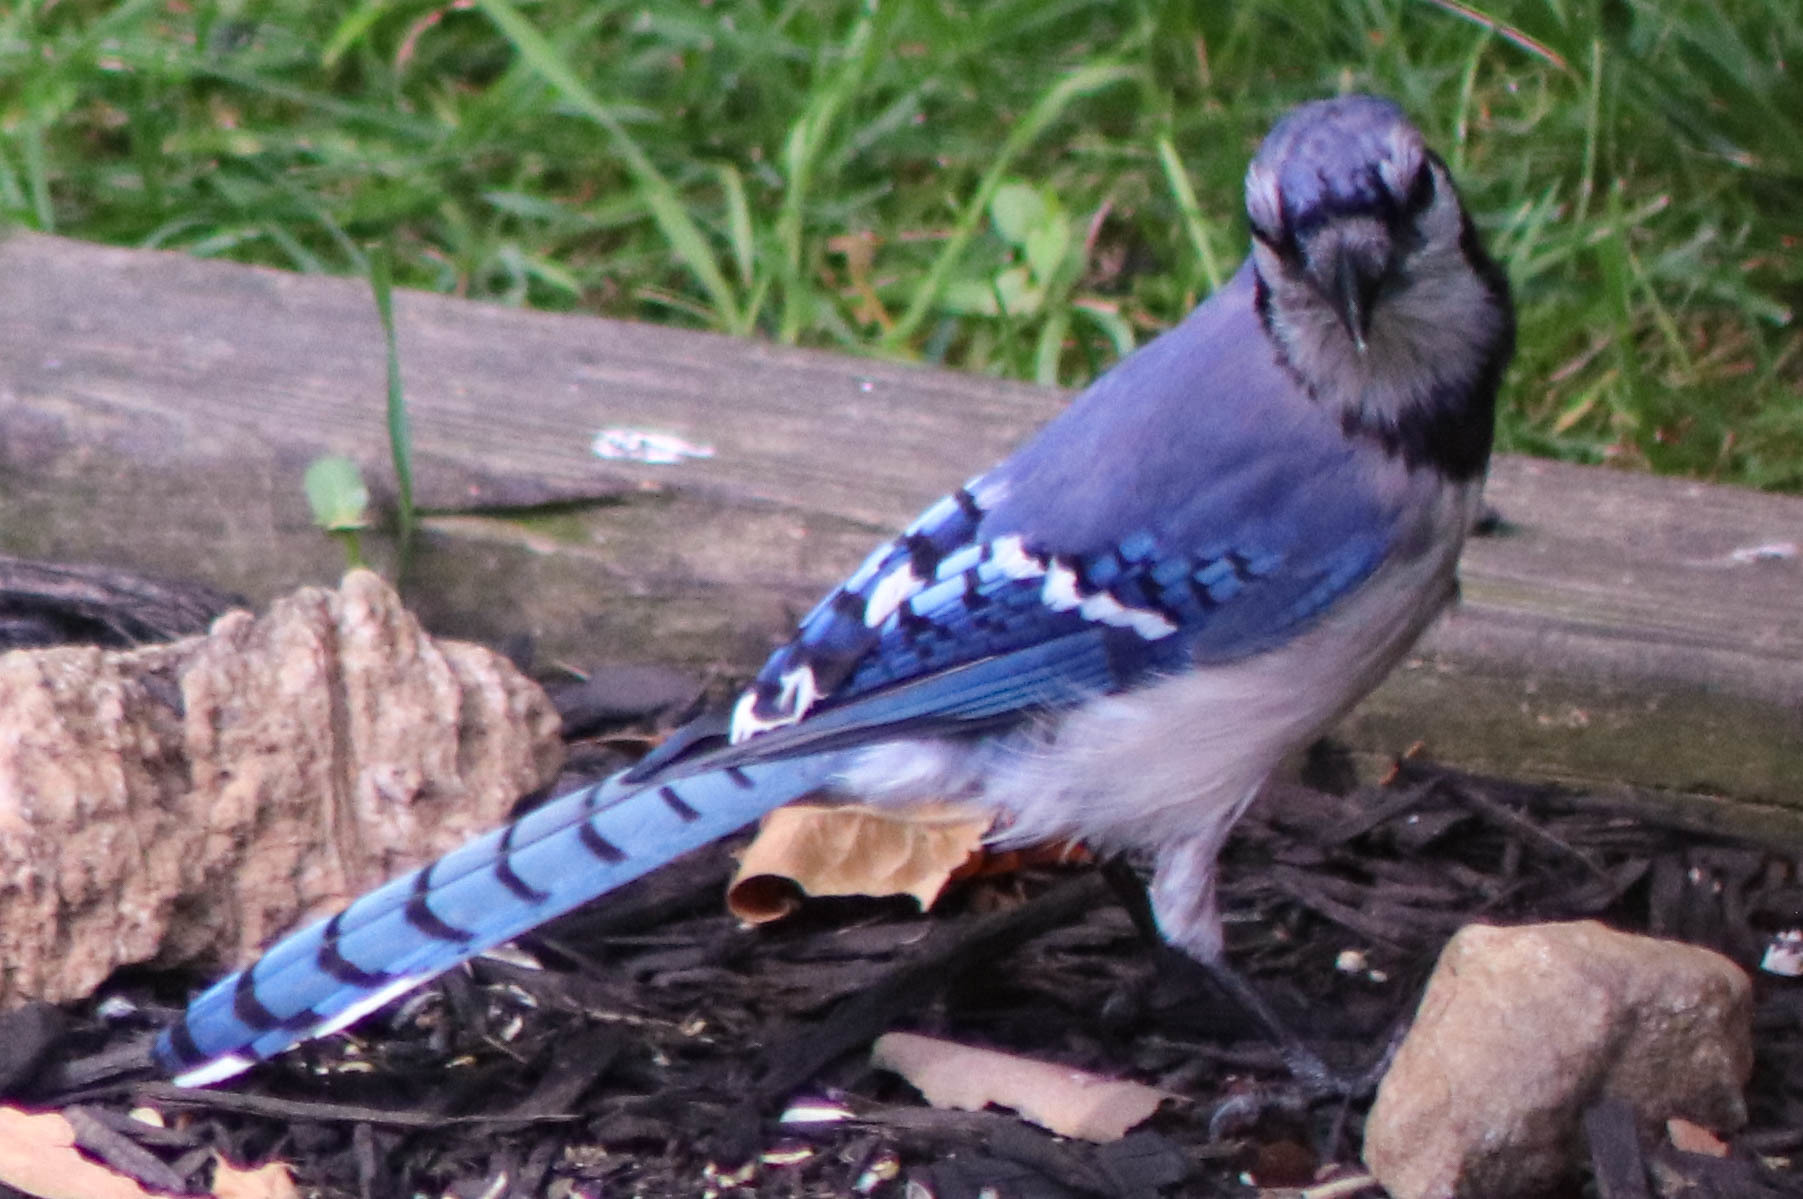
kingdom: Animalia
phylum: Chordata
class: Aves
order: Passeriformes
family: Corvidae
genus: Cyanocitta
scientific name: Cyanocitta cristata
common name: Blue jay
